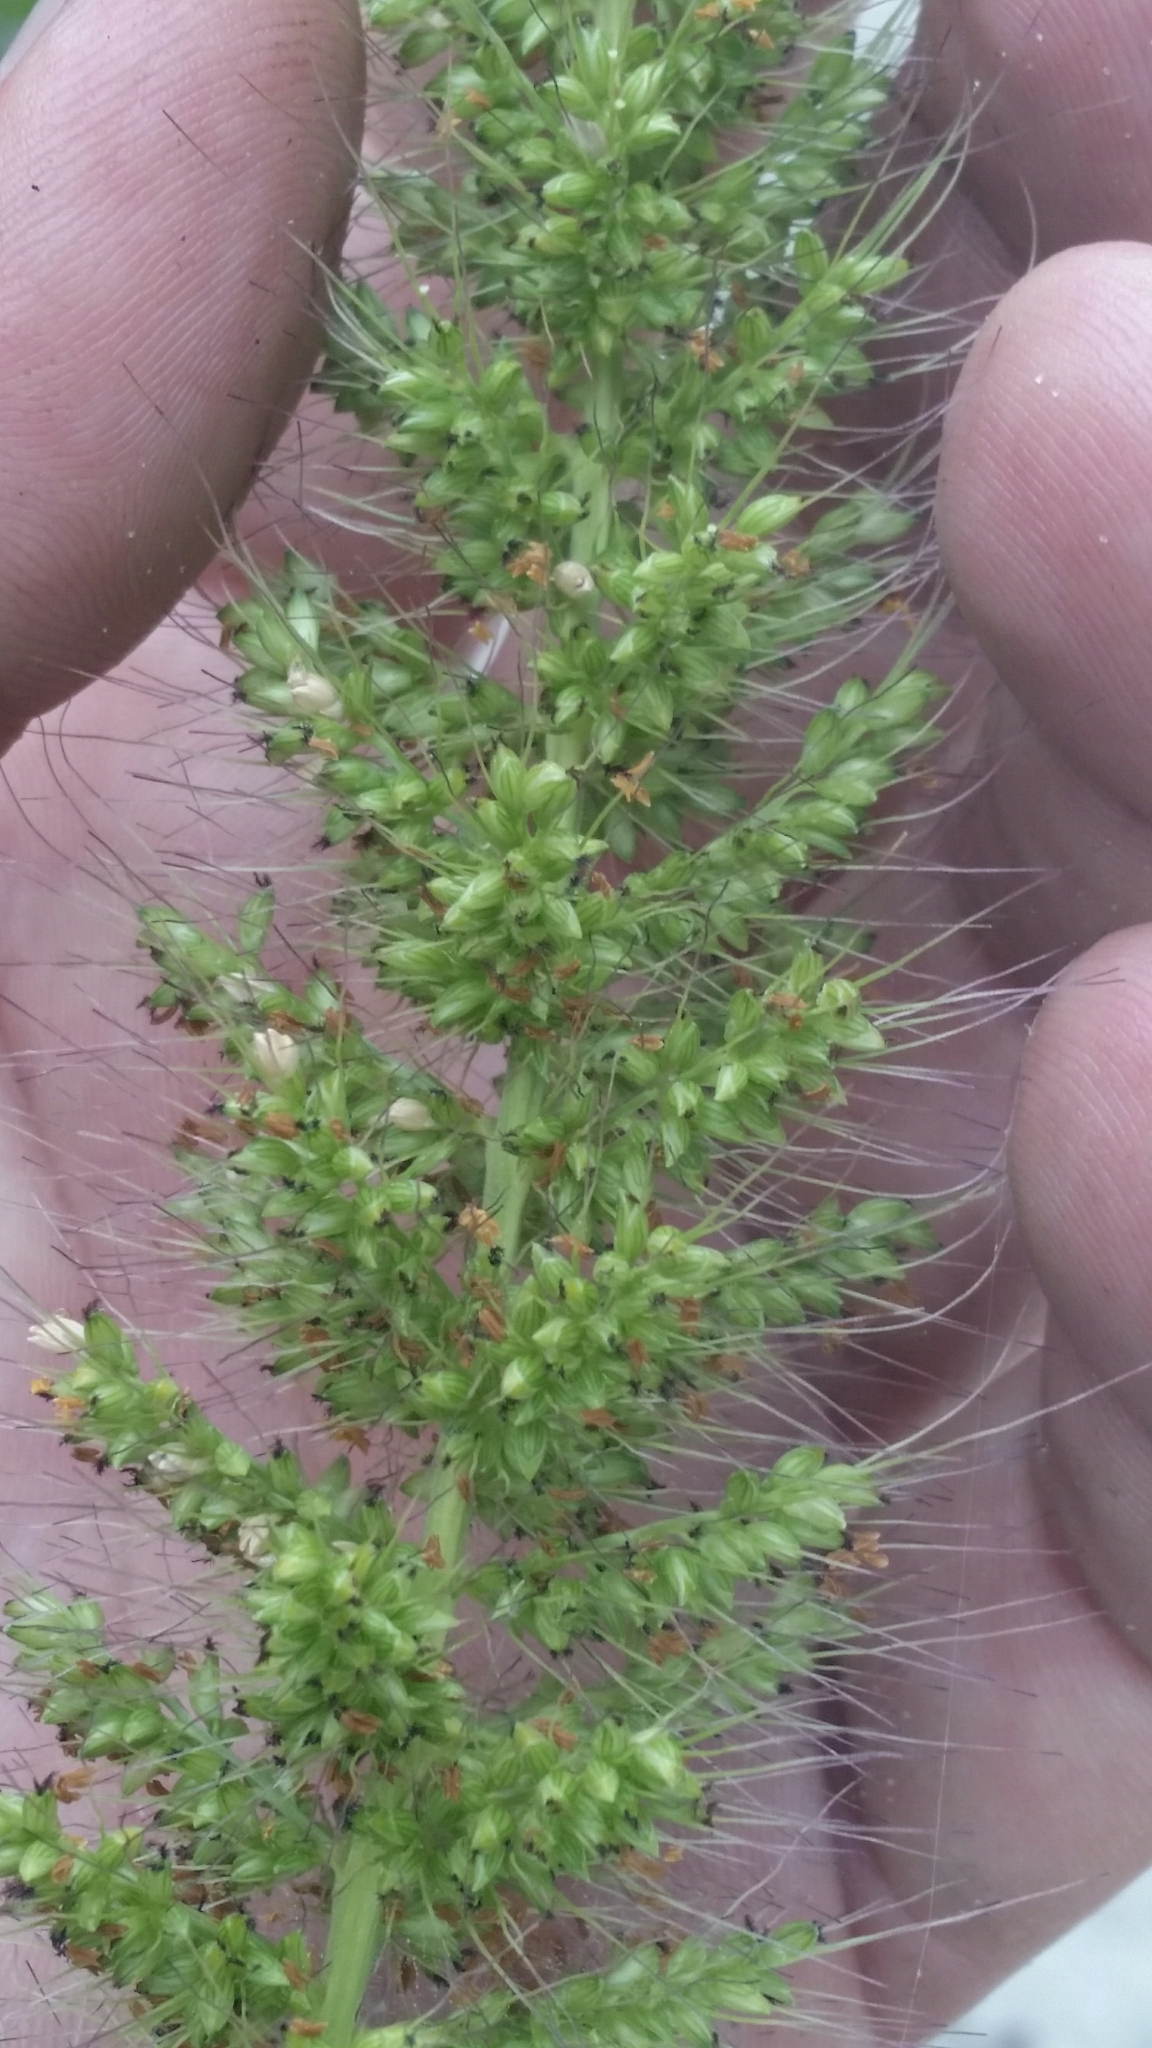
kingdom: Plantae
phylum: Tracheophyta
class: Liliopsida
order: Poales
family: Poaceae
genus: Setaria
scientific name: Setaria macrosperma
